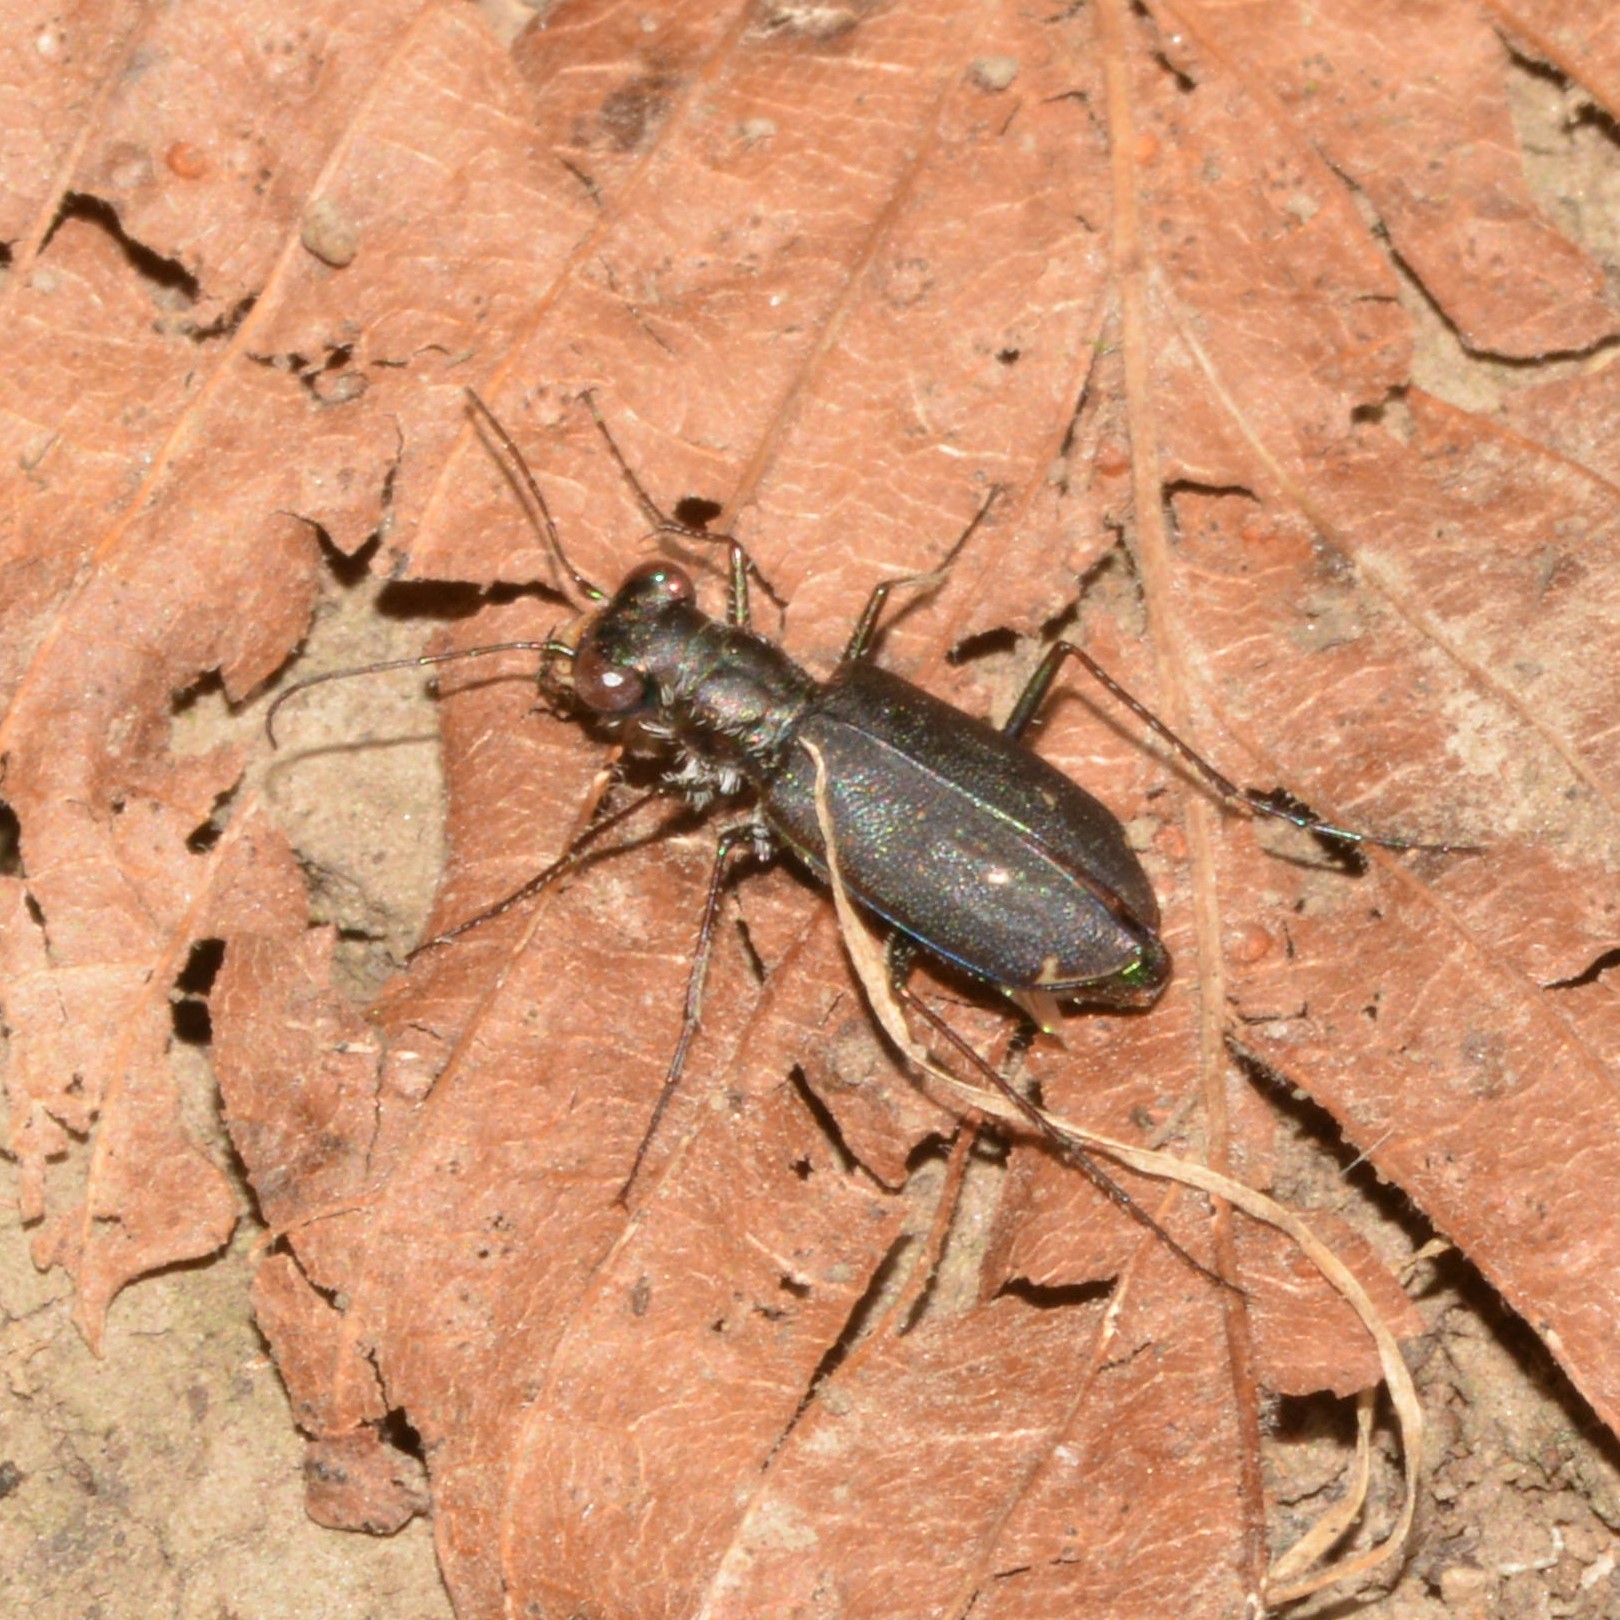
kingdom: Animalia
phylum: Arthropoda
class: Insecta
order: Coleoptera
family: Carabidae
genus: Cicindela
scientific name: Cicindela punctulata
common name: Punctured tiger beetle
